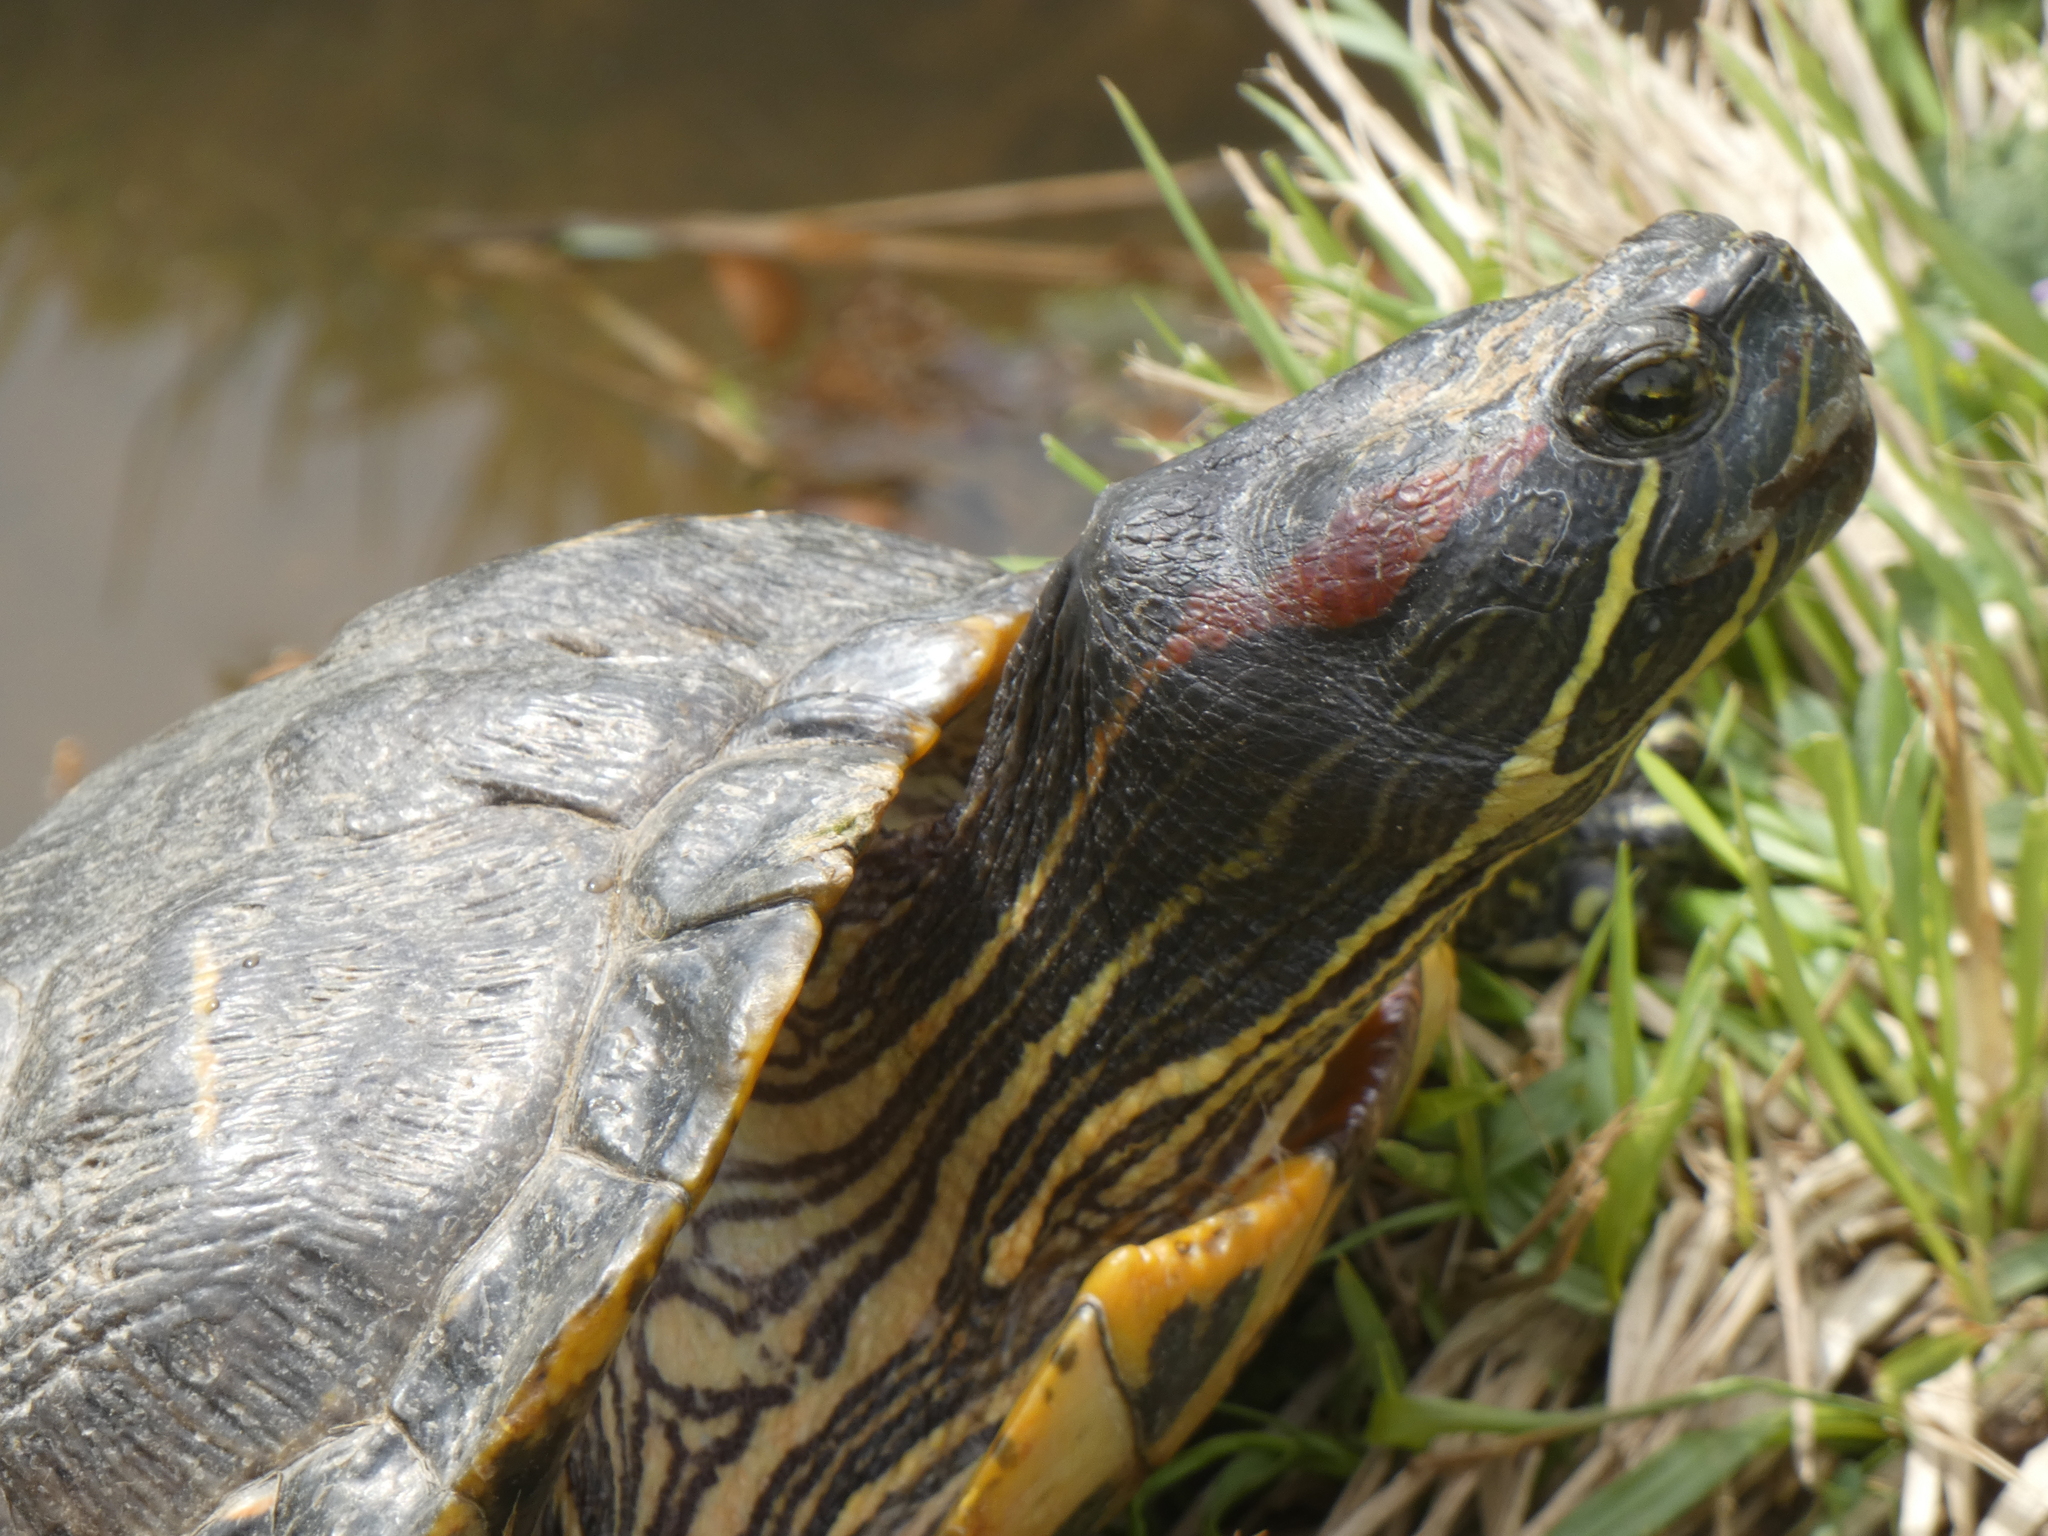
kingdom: Animalia
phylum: Chordata
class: Testudines
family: Emydidae
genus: Trachemys
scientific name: Trachemys scripta
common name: Slider
